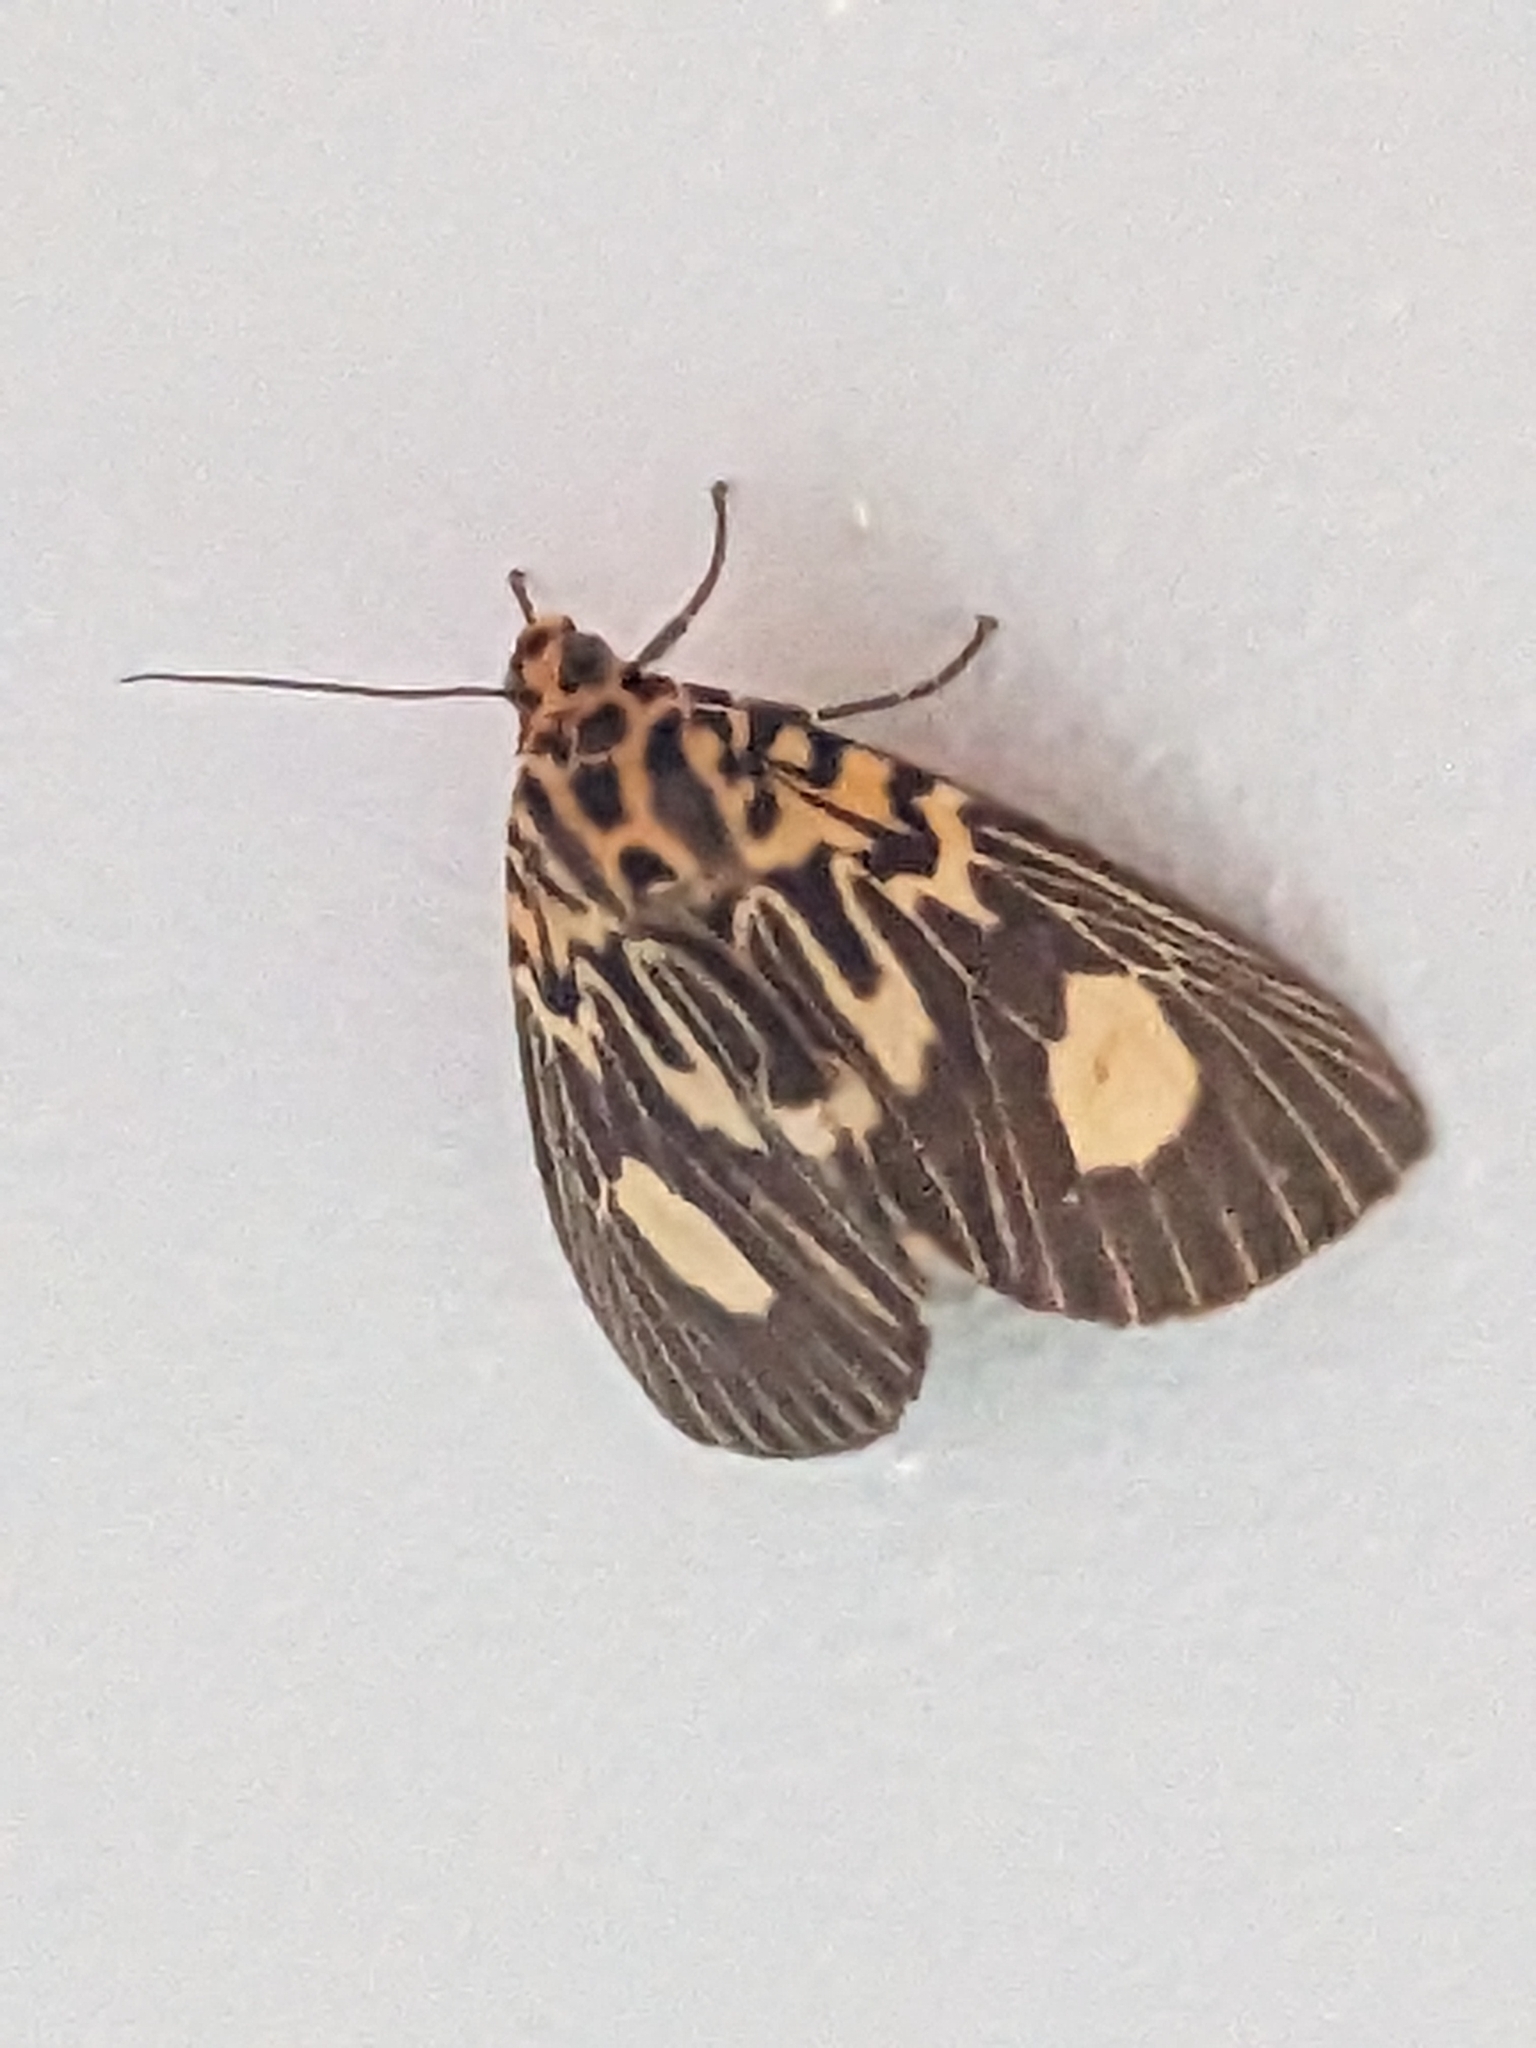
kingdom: Animalia
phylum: Arthropoda
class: Insecta
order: Lepidoptera
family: Erebidae
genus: Asota
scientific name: Asota plagiata
